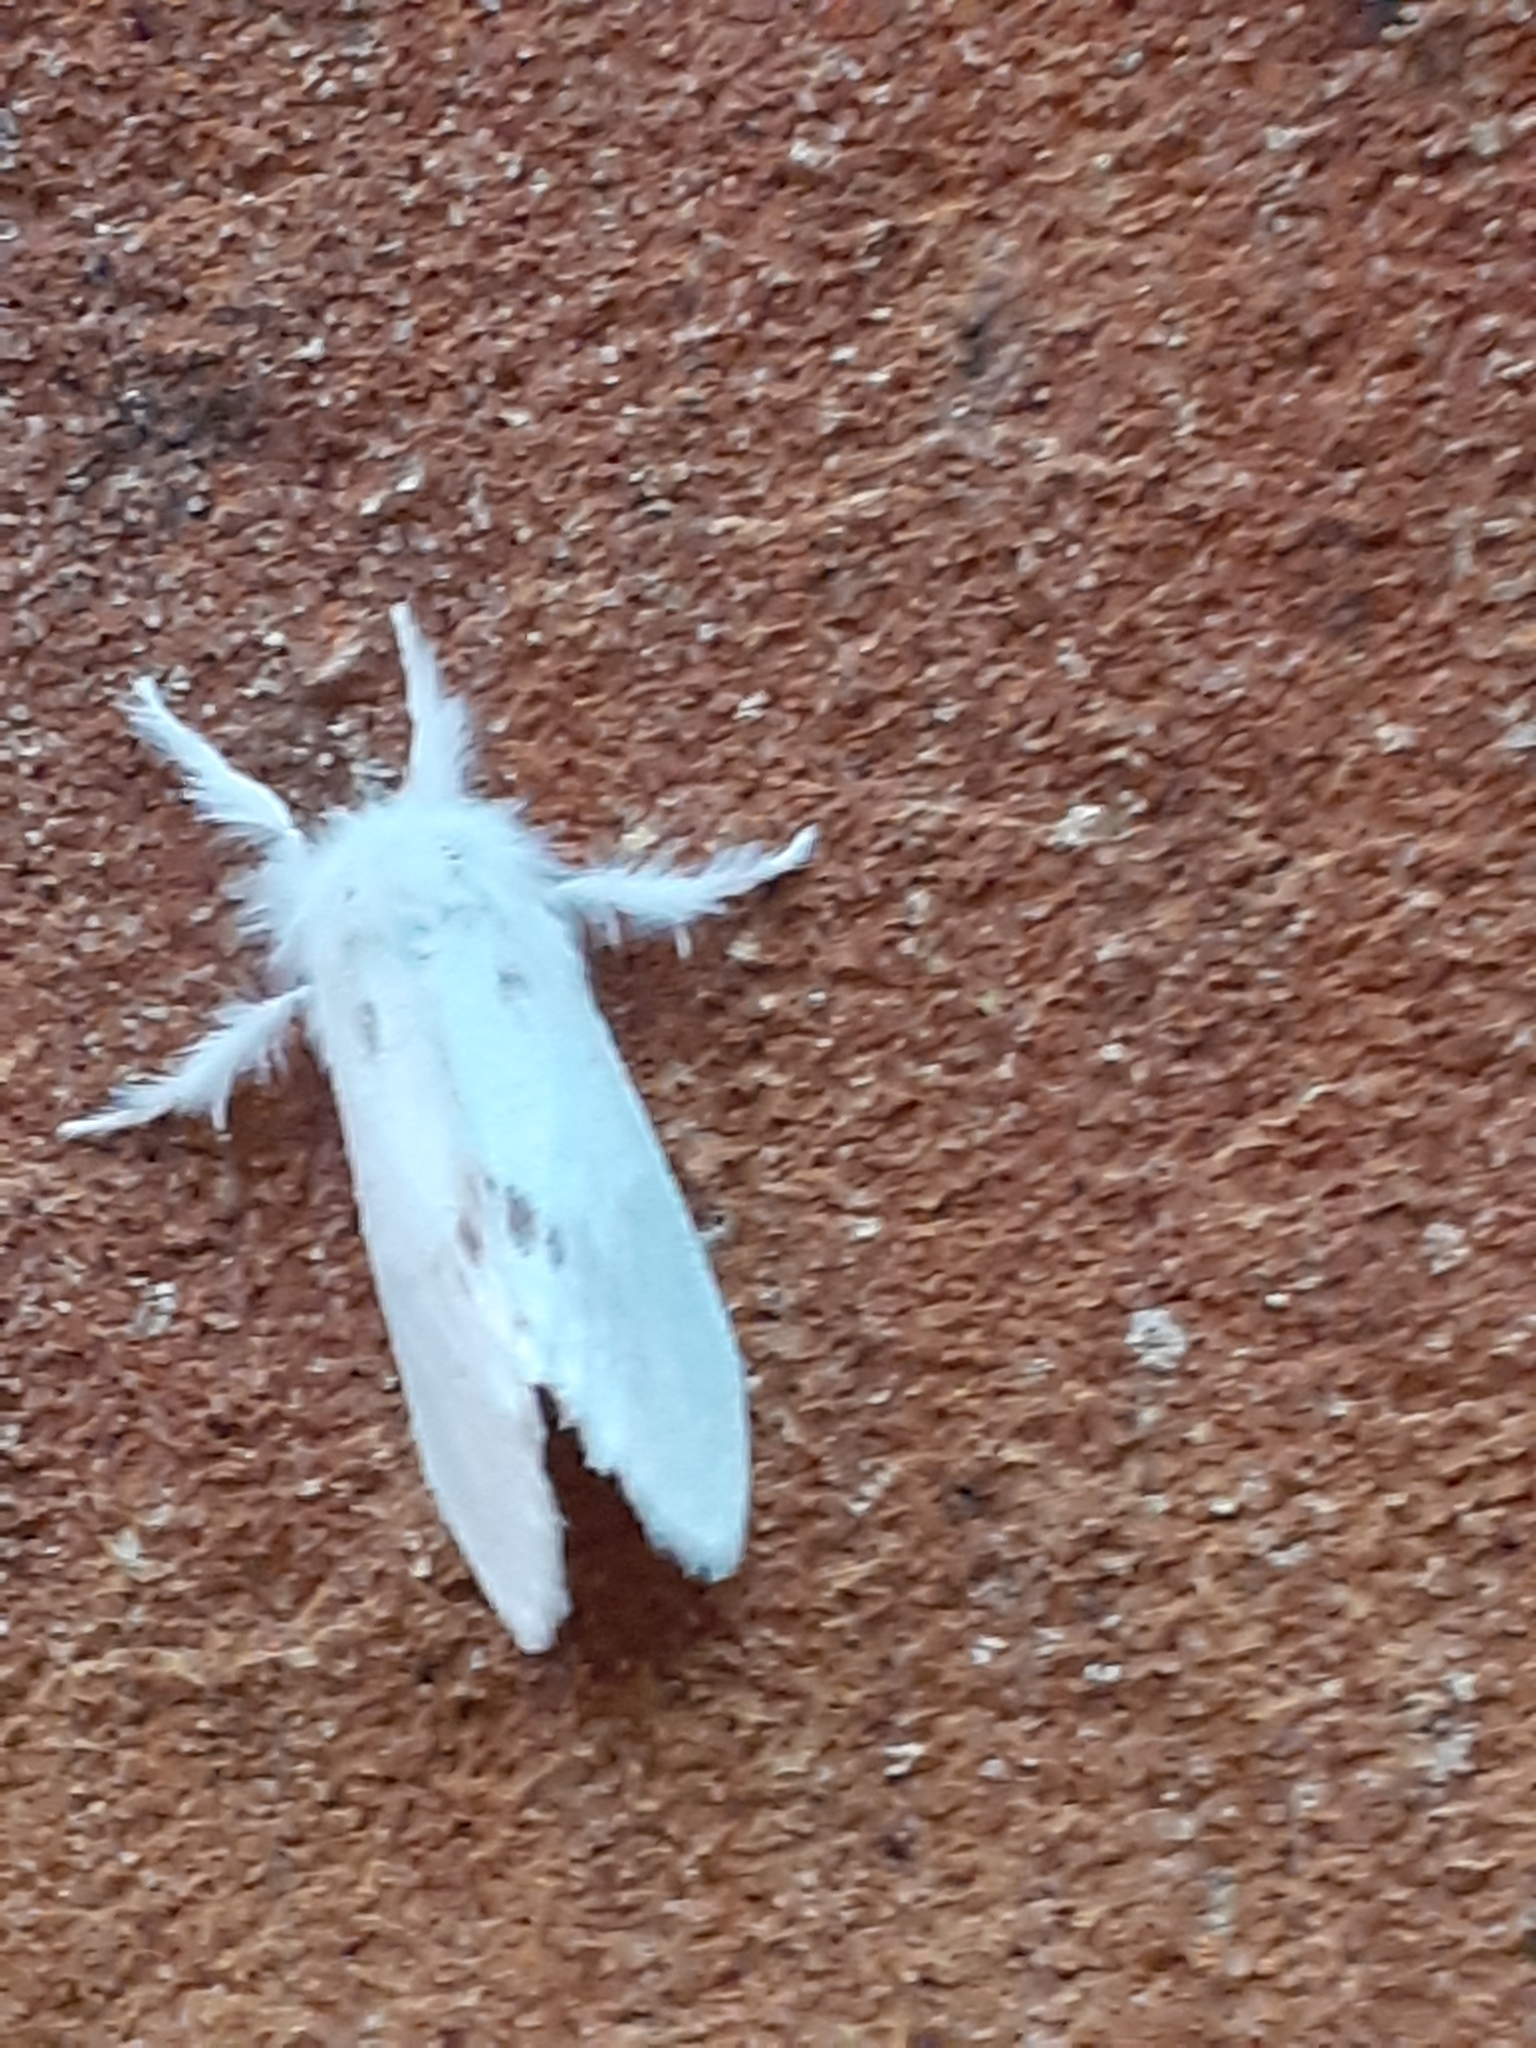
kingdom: Animalia
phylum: Arthropoda
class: Insecta
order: Lepidoptera
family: Erebidae
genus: Sphrageidus
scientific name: Sphrageidus similis
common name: Yellow-tail
